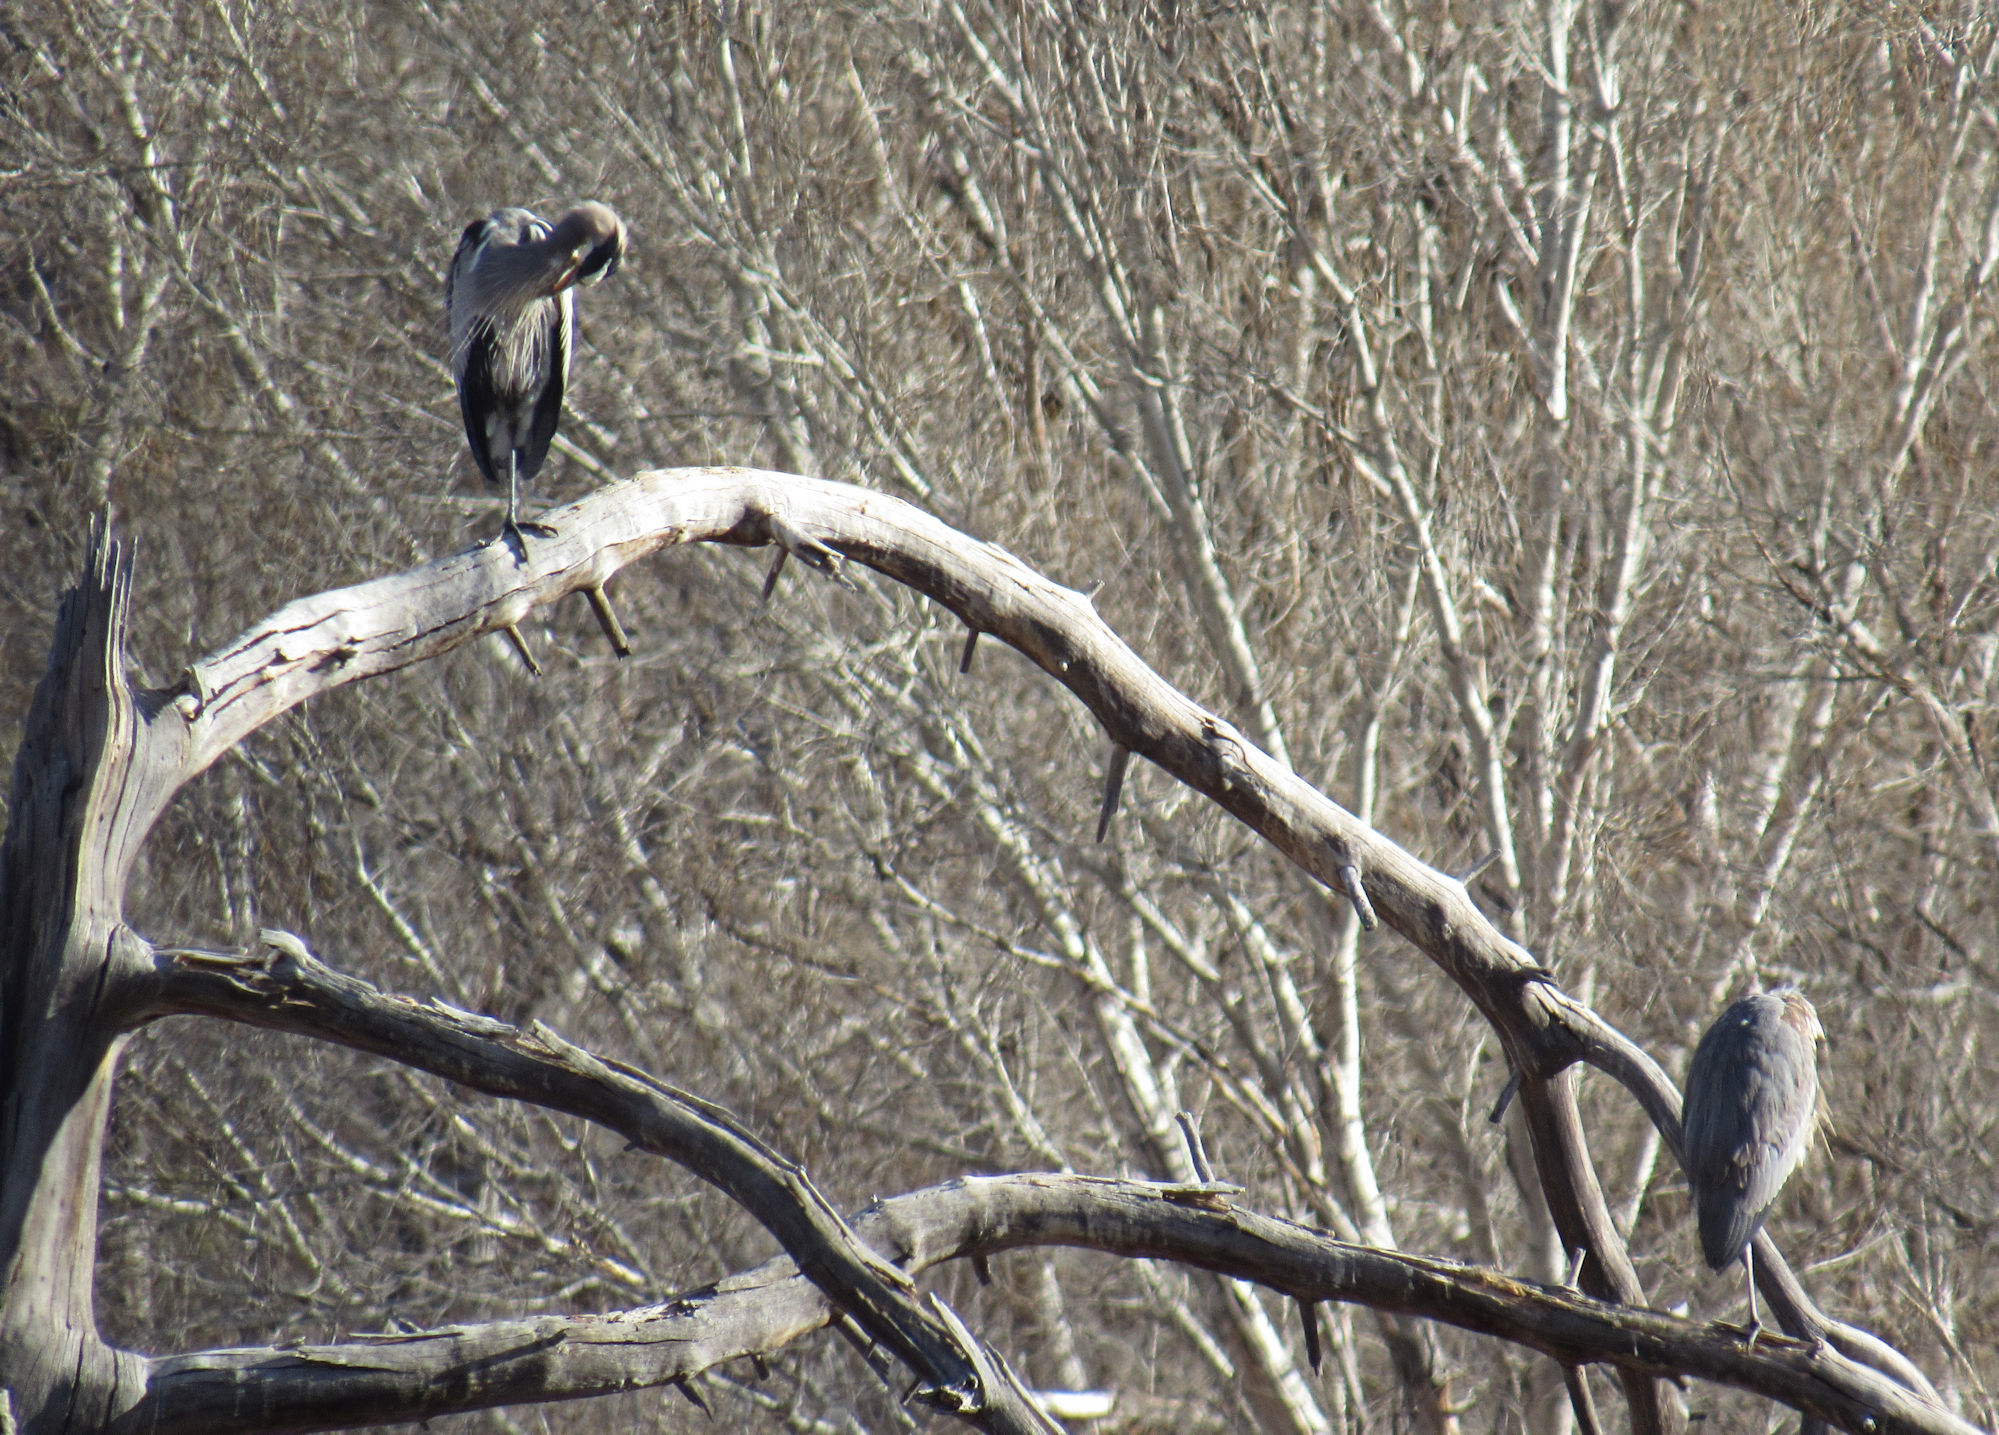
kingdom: Animalia
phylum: Chordata
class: Aves
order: Pelecaniformes
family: Ardeidae
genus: Ardea
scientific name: Ardea herodias
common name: Great blue heron
